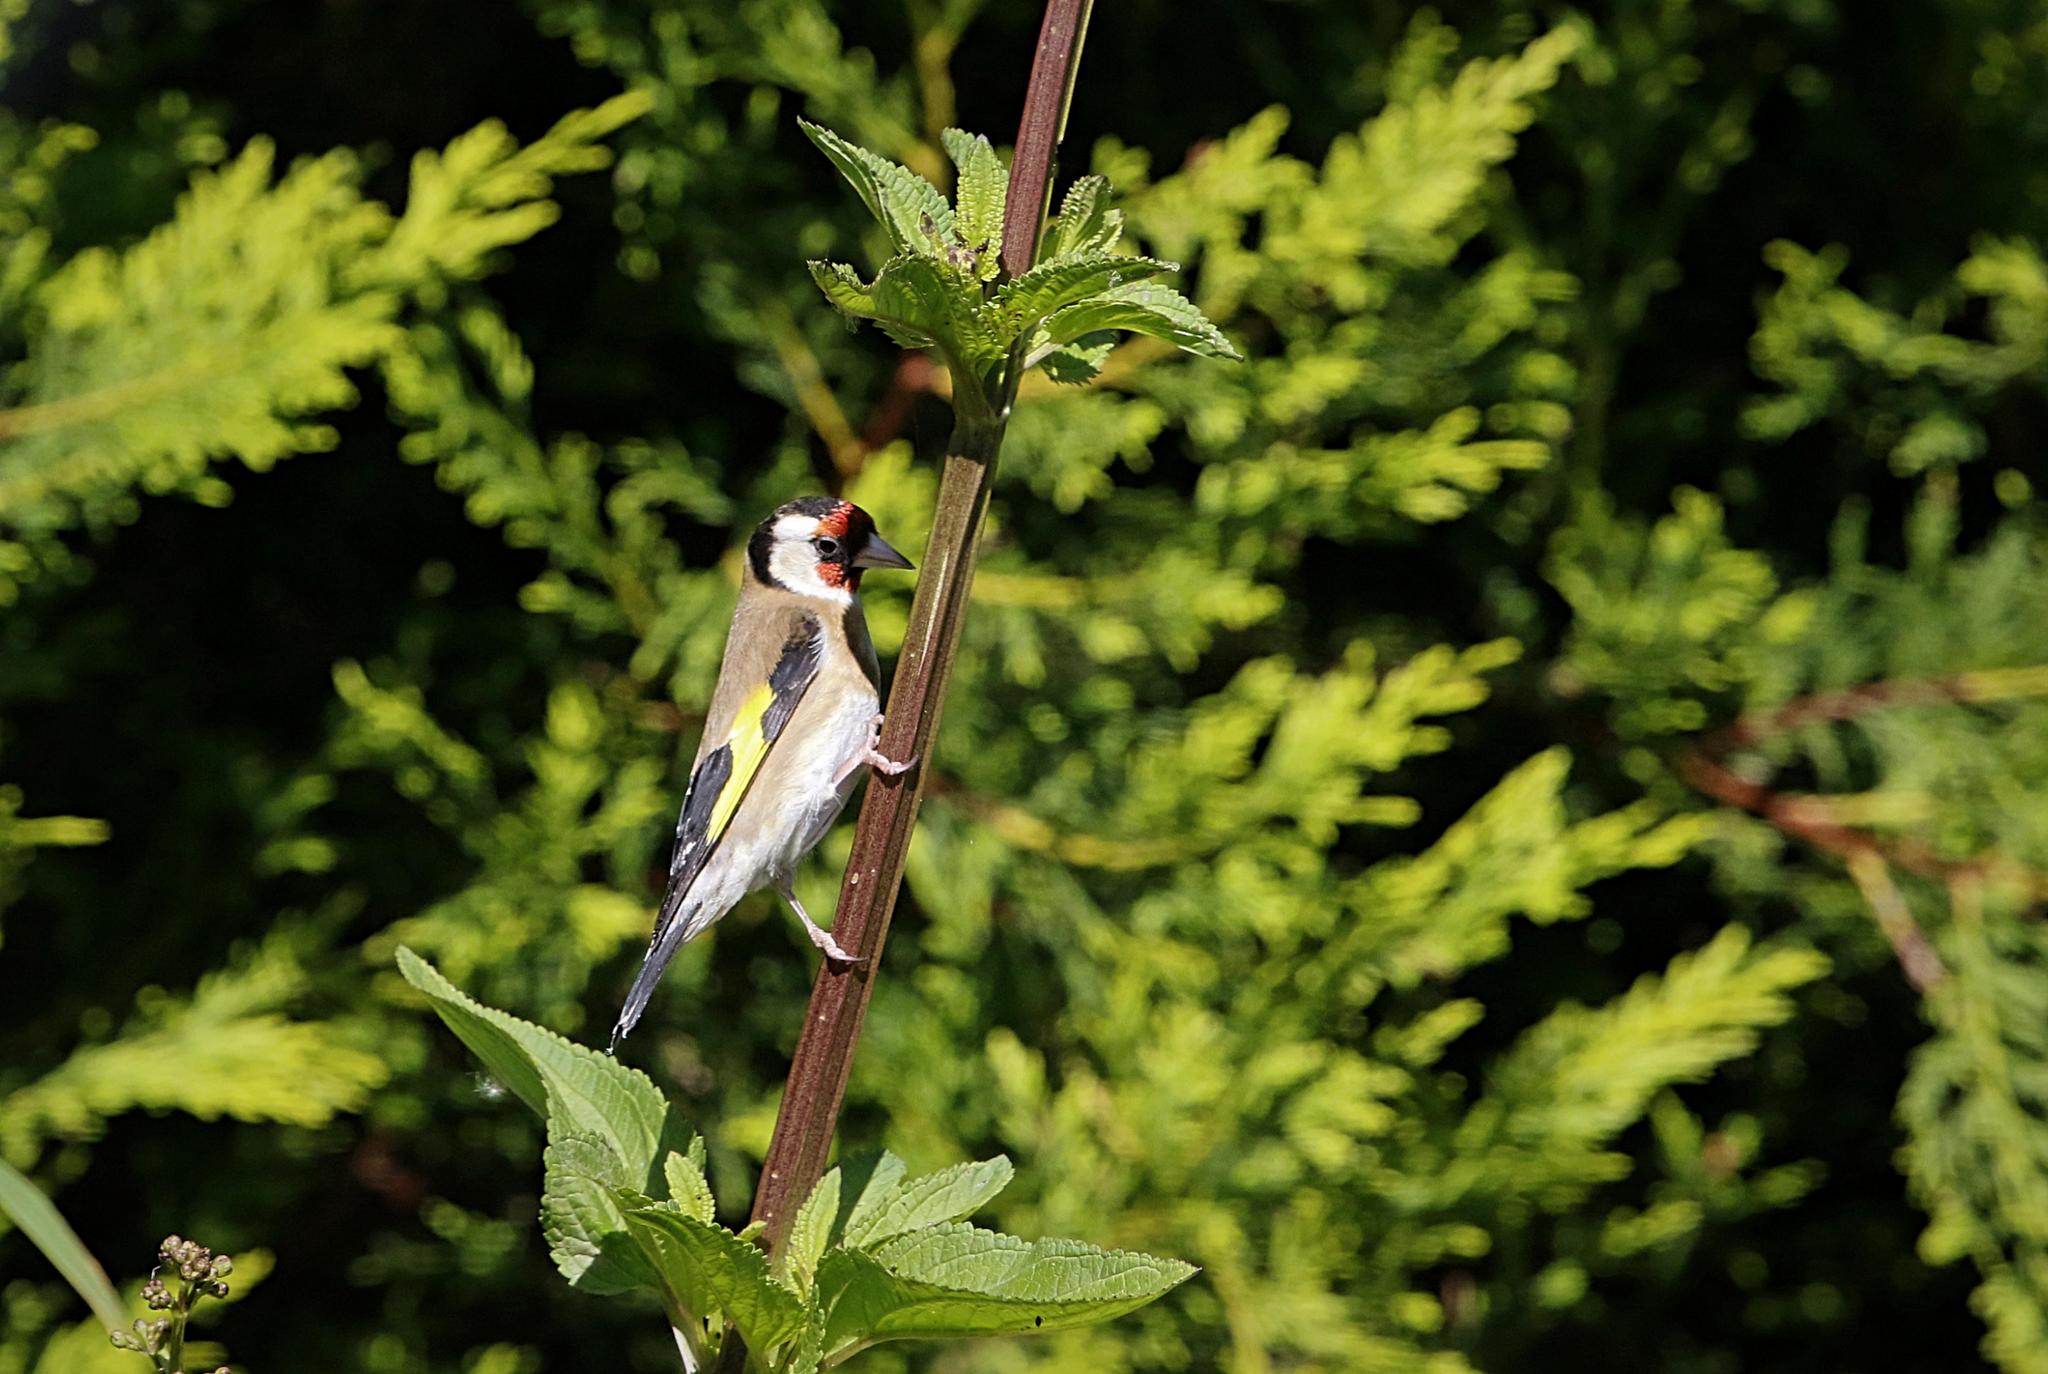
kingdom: Animalia
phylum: Chordata
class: Aves
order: Passeriformes
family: Fringillidae
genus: Carduelis
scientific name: Carduelis carduelis
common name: European goldfinch
